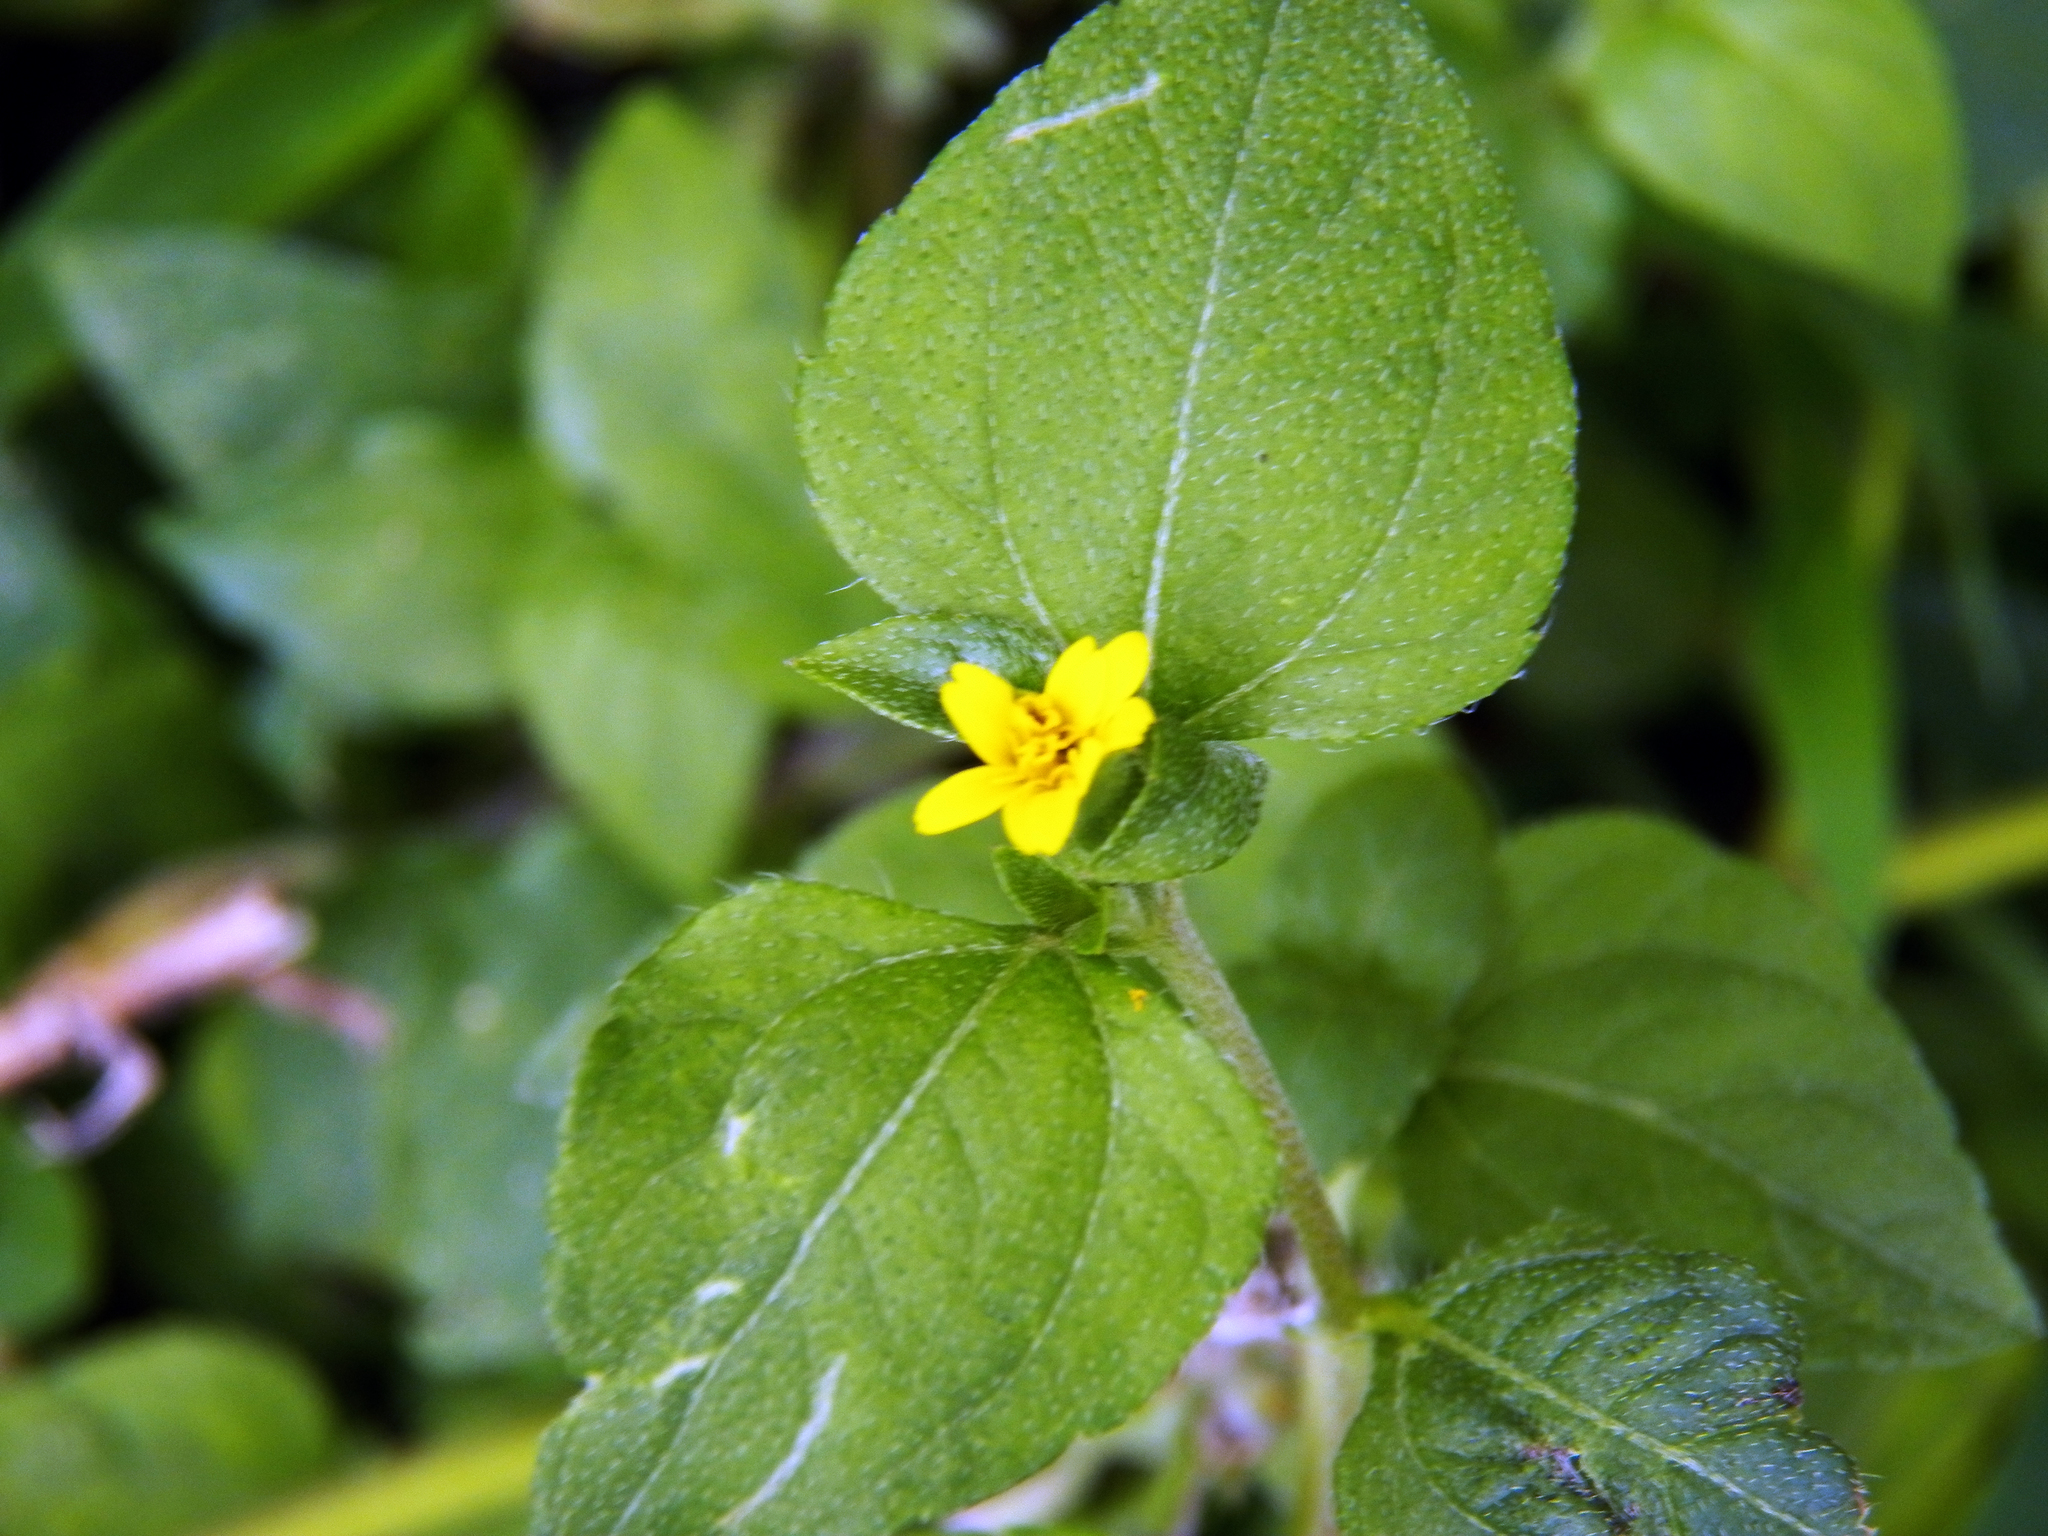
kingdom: Plantae
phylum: Tracheophyta
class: Magnoliopsida
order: Asterales
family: Asteraceae
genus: Calyptocarpus
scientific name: Calyptocarpus vialis
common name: Straggler daisy
